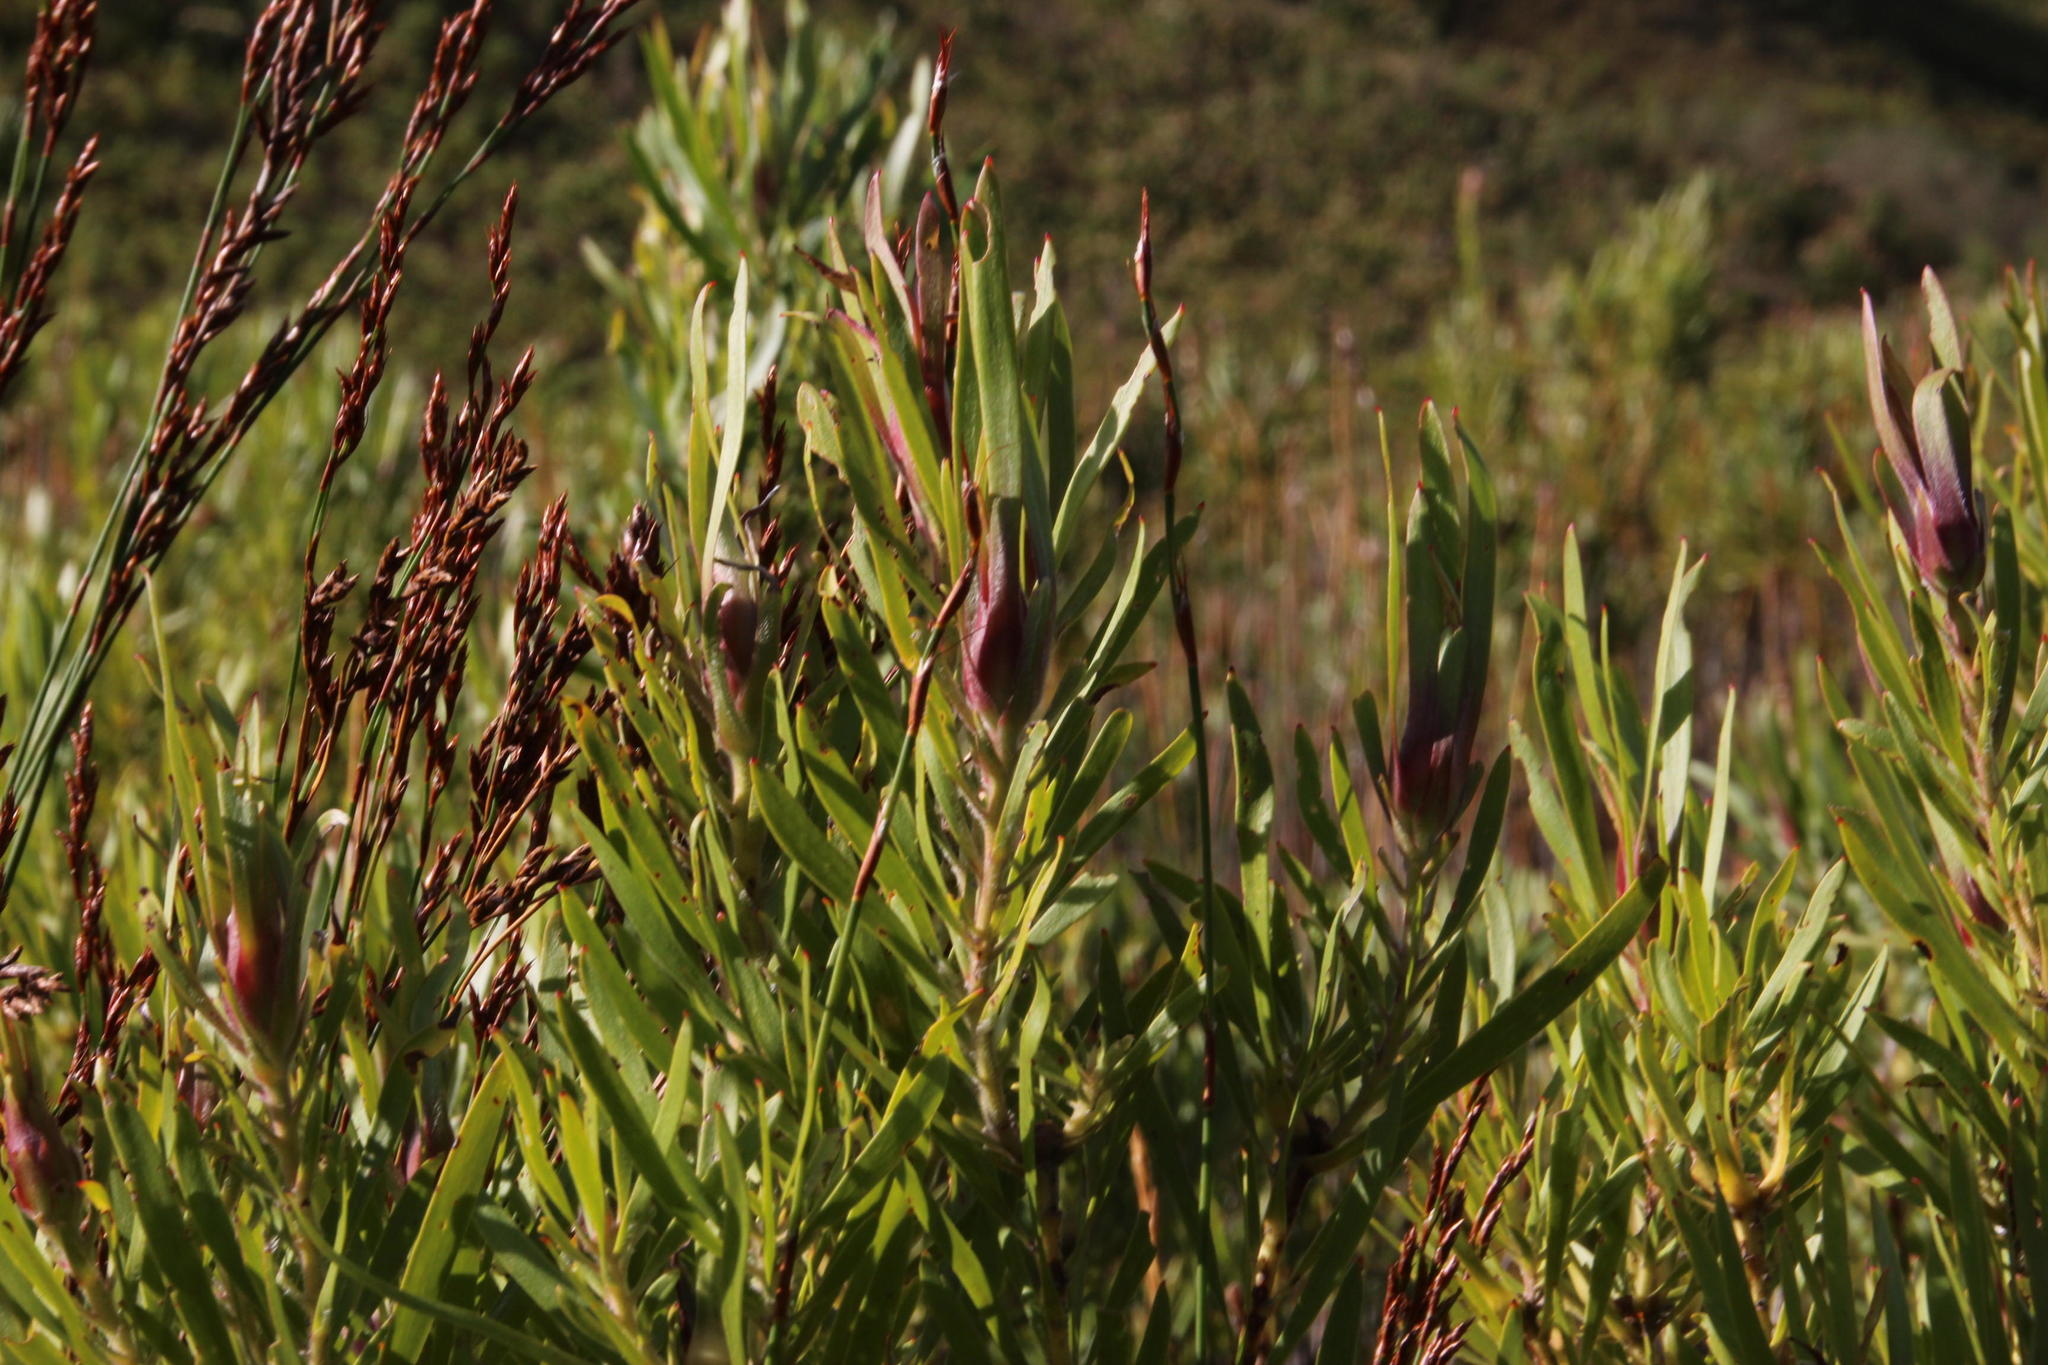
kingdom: Plantae
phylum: Tracheophyta
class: Magnoliopsida
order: Proteales
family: Proteaceae
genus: Leucadendron
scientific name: Leucadendron eucalyptifolium
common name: Gum-leaved conebush
